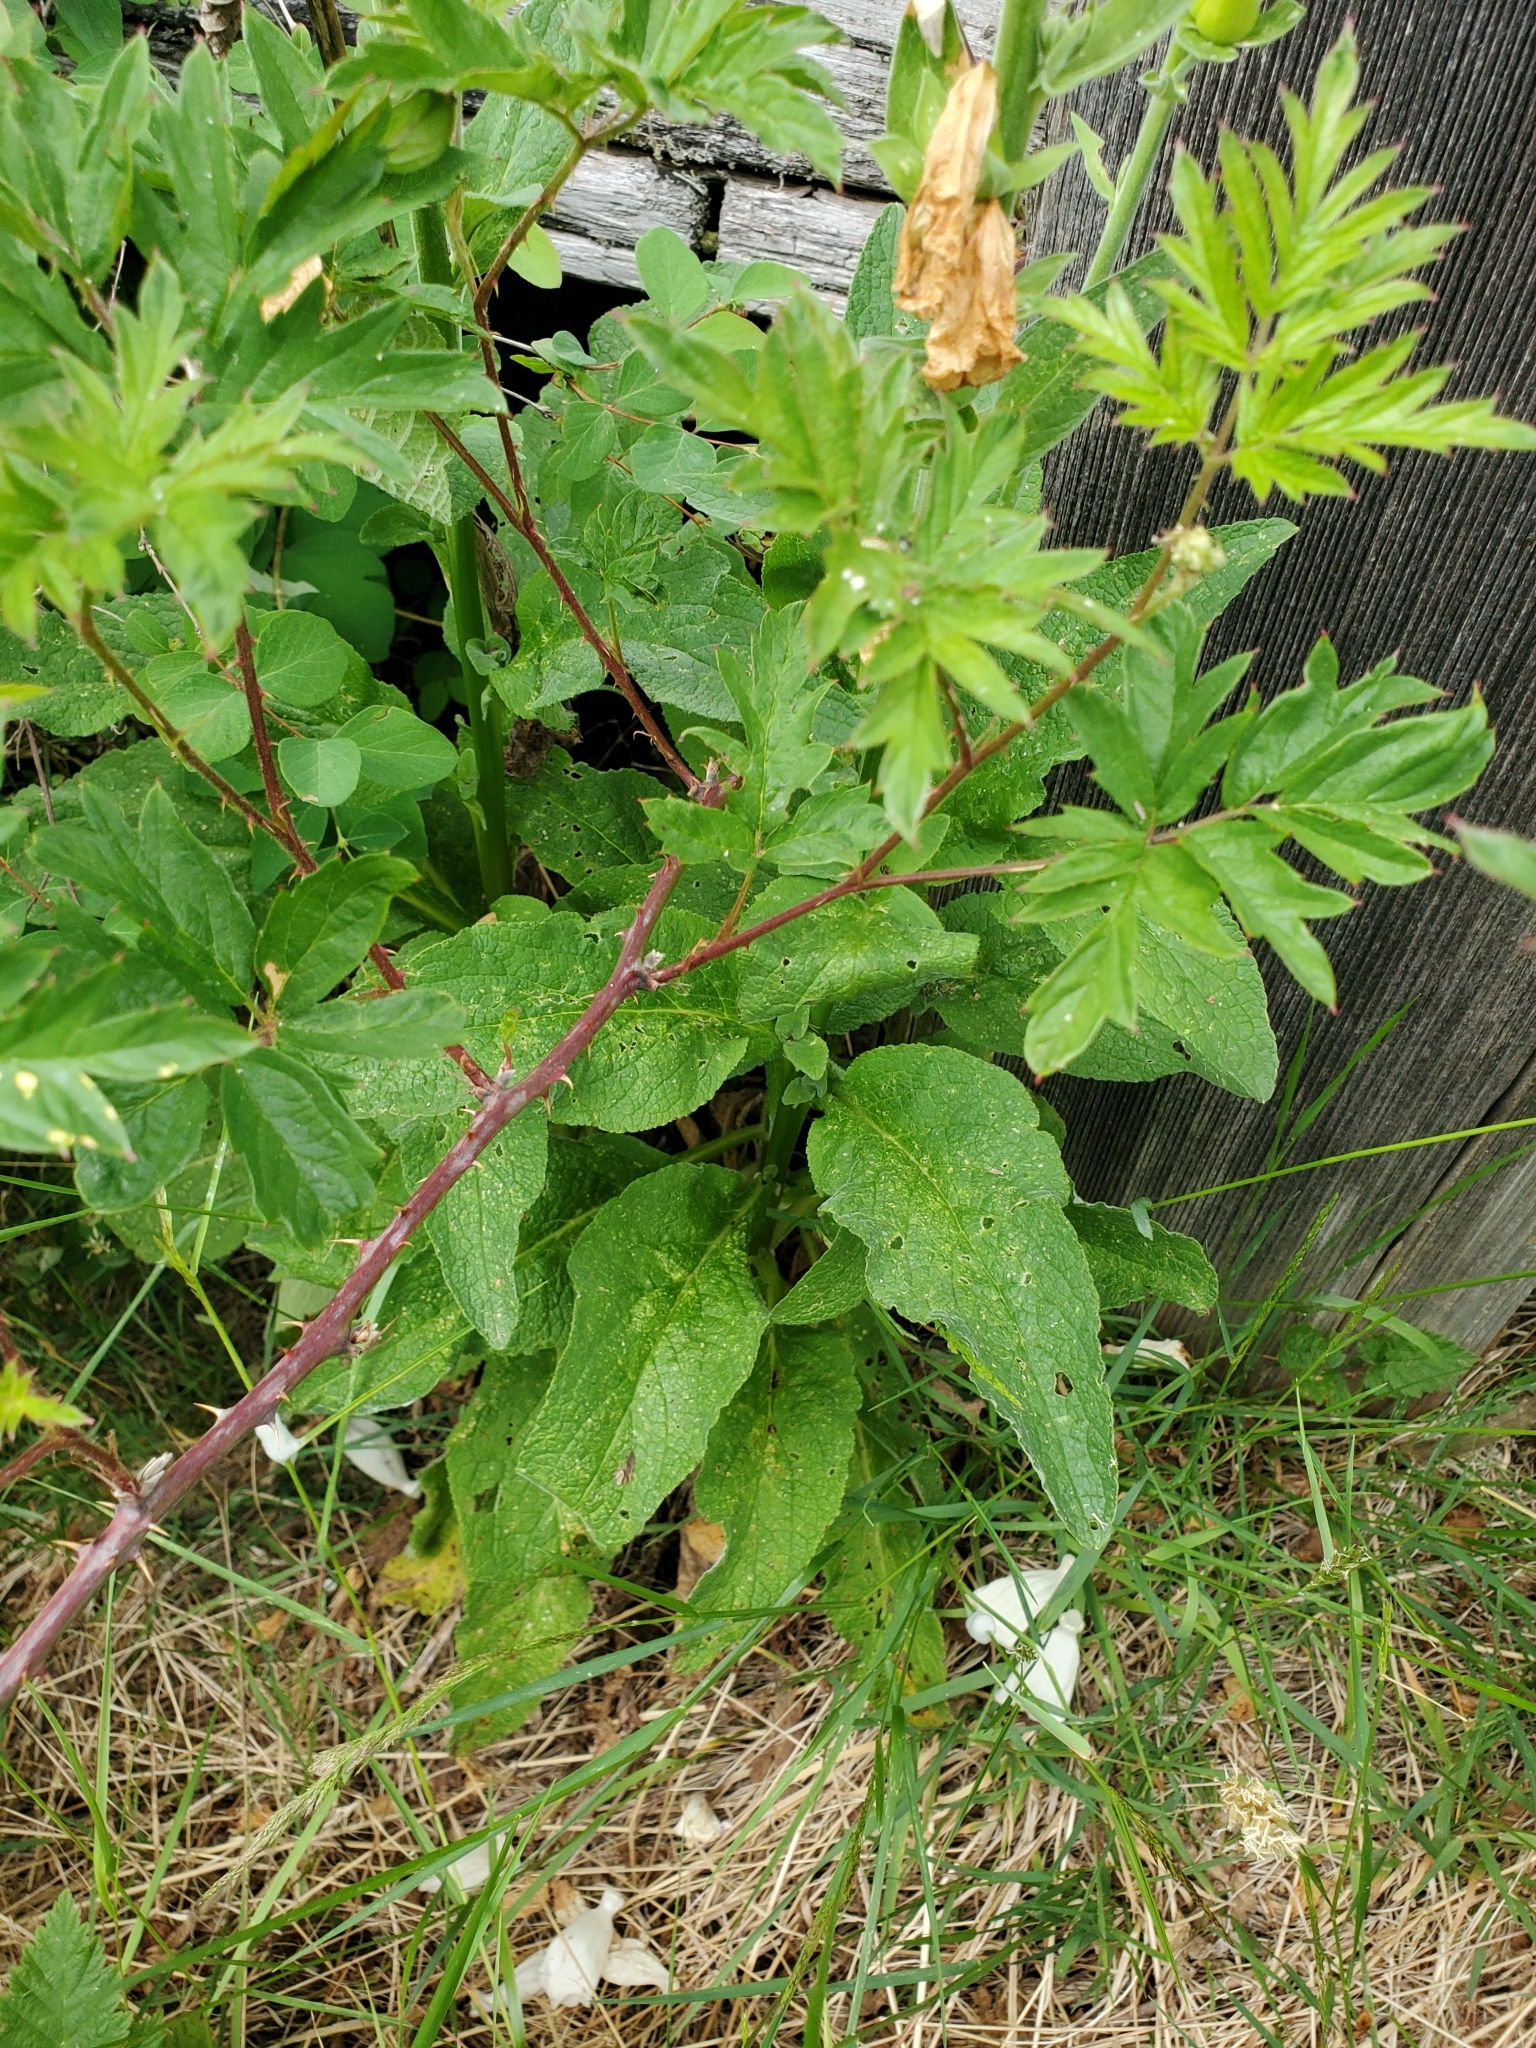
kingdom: Plantae
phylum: Tracheophyta
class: Magnoliopsida
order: Lamiales
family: Plantaginaceae
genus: Digitalis
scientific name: Digitalis purpurea
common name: Foxglove
